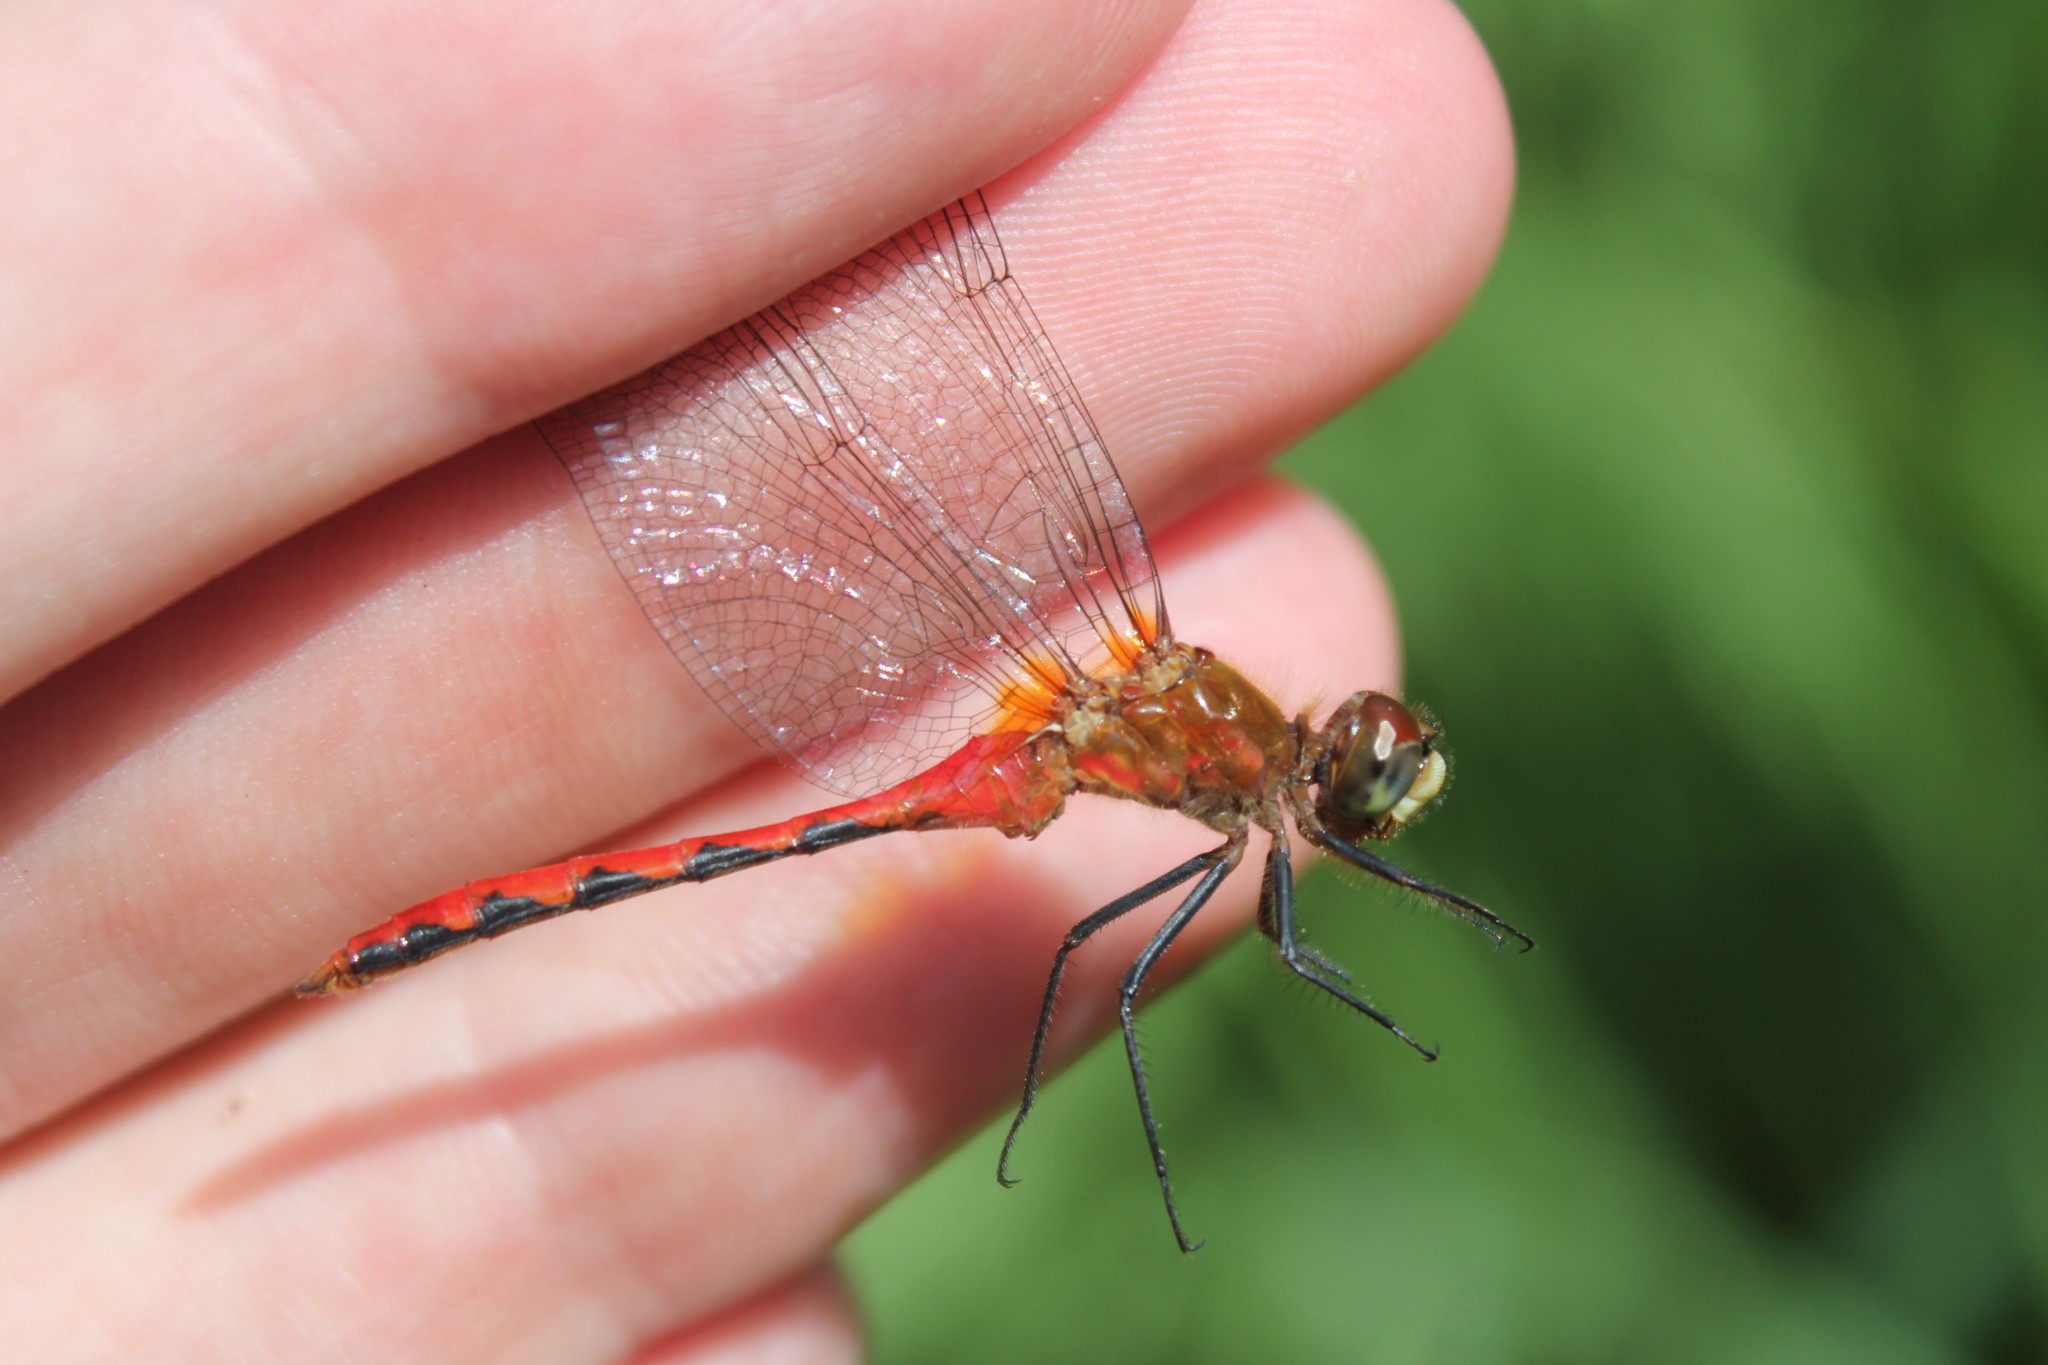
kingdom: Animalia
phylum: Arthropoda
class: Insecta
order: Odonata
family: Libellulidae
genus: Sympetrum
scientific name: Sympetrum obtrusum
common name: White-faced meadowhawk
